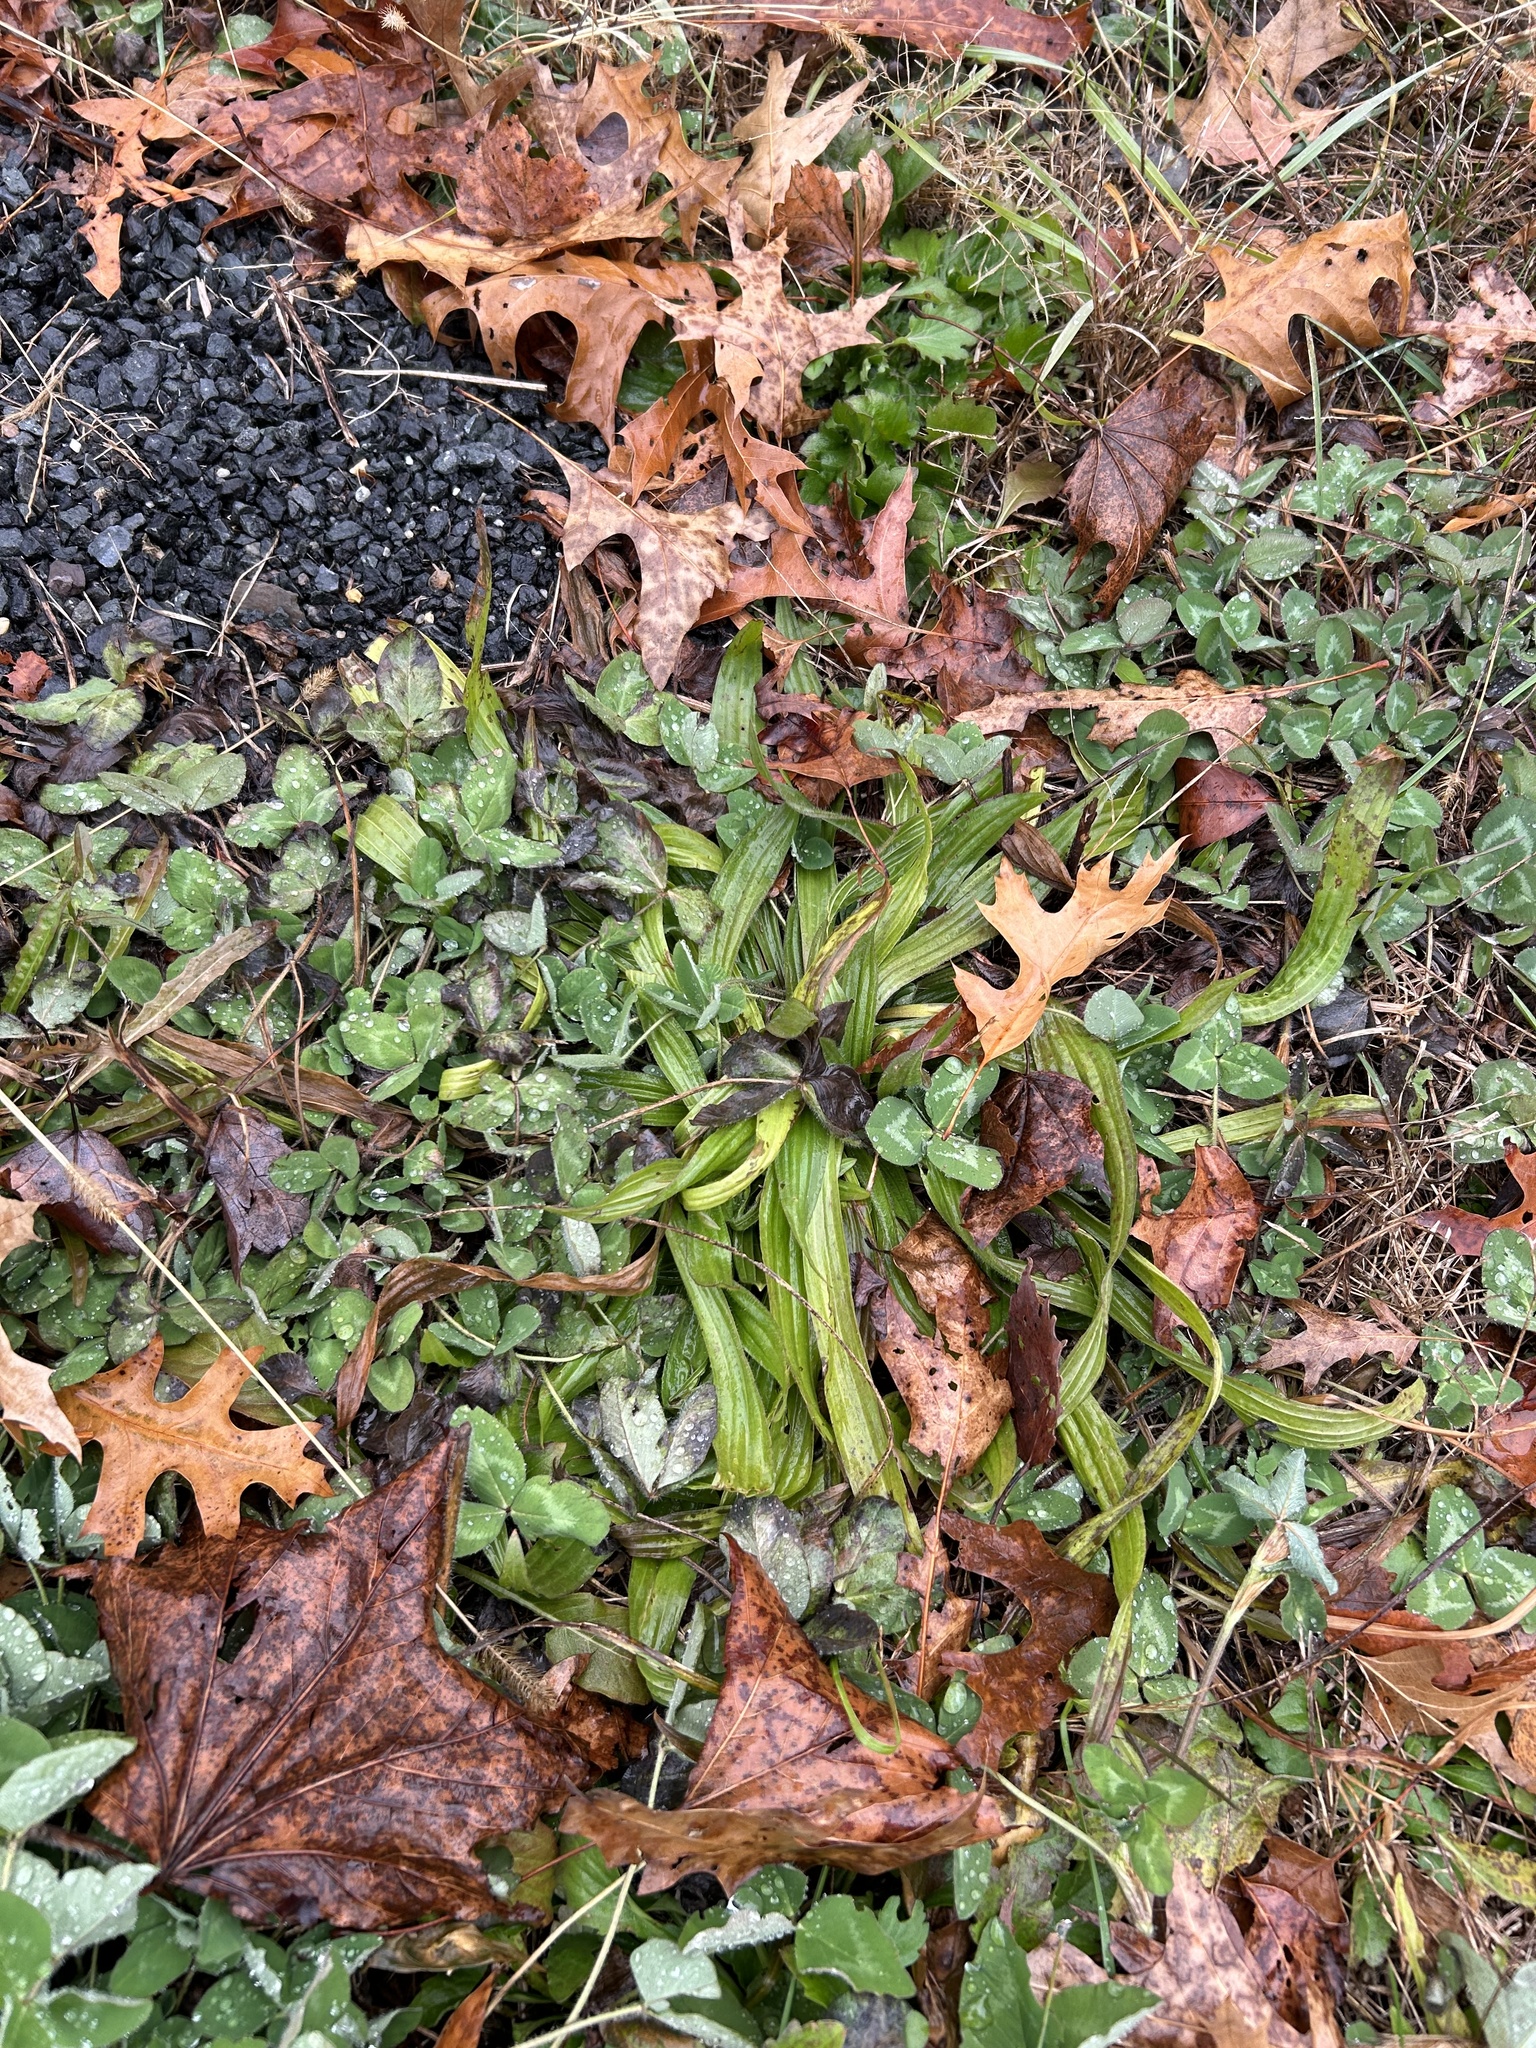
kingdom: Plantae
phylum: Tracheophyta
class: Magnoliopsida
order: Lamiales
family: Plantaginaceae
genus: Plantago
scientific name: Plantago lanceolata
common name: Ribwort plantain
